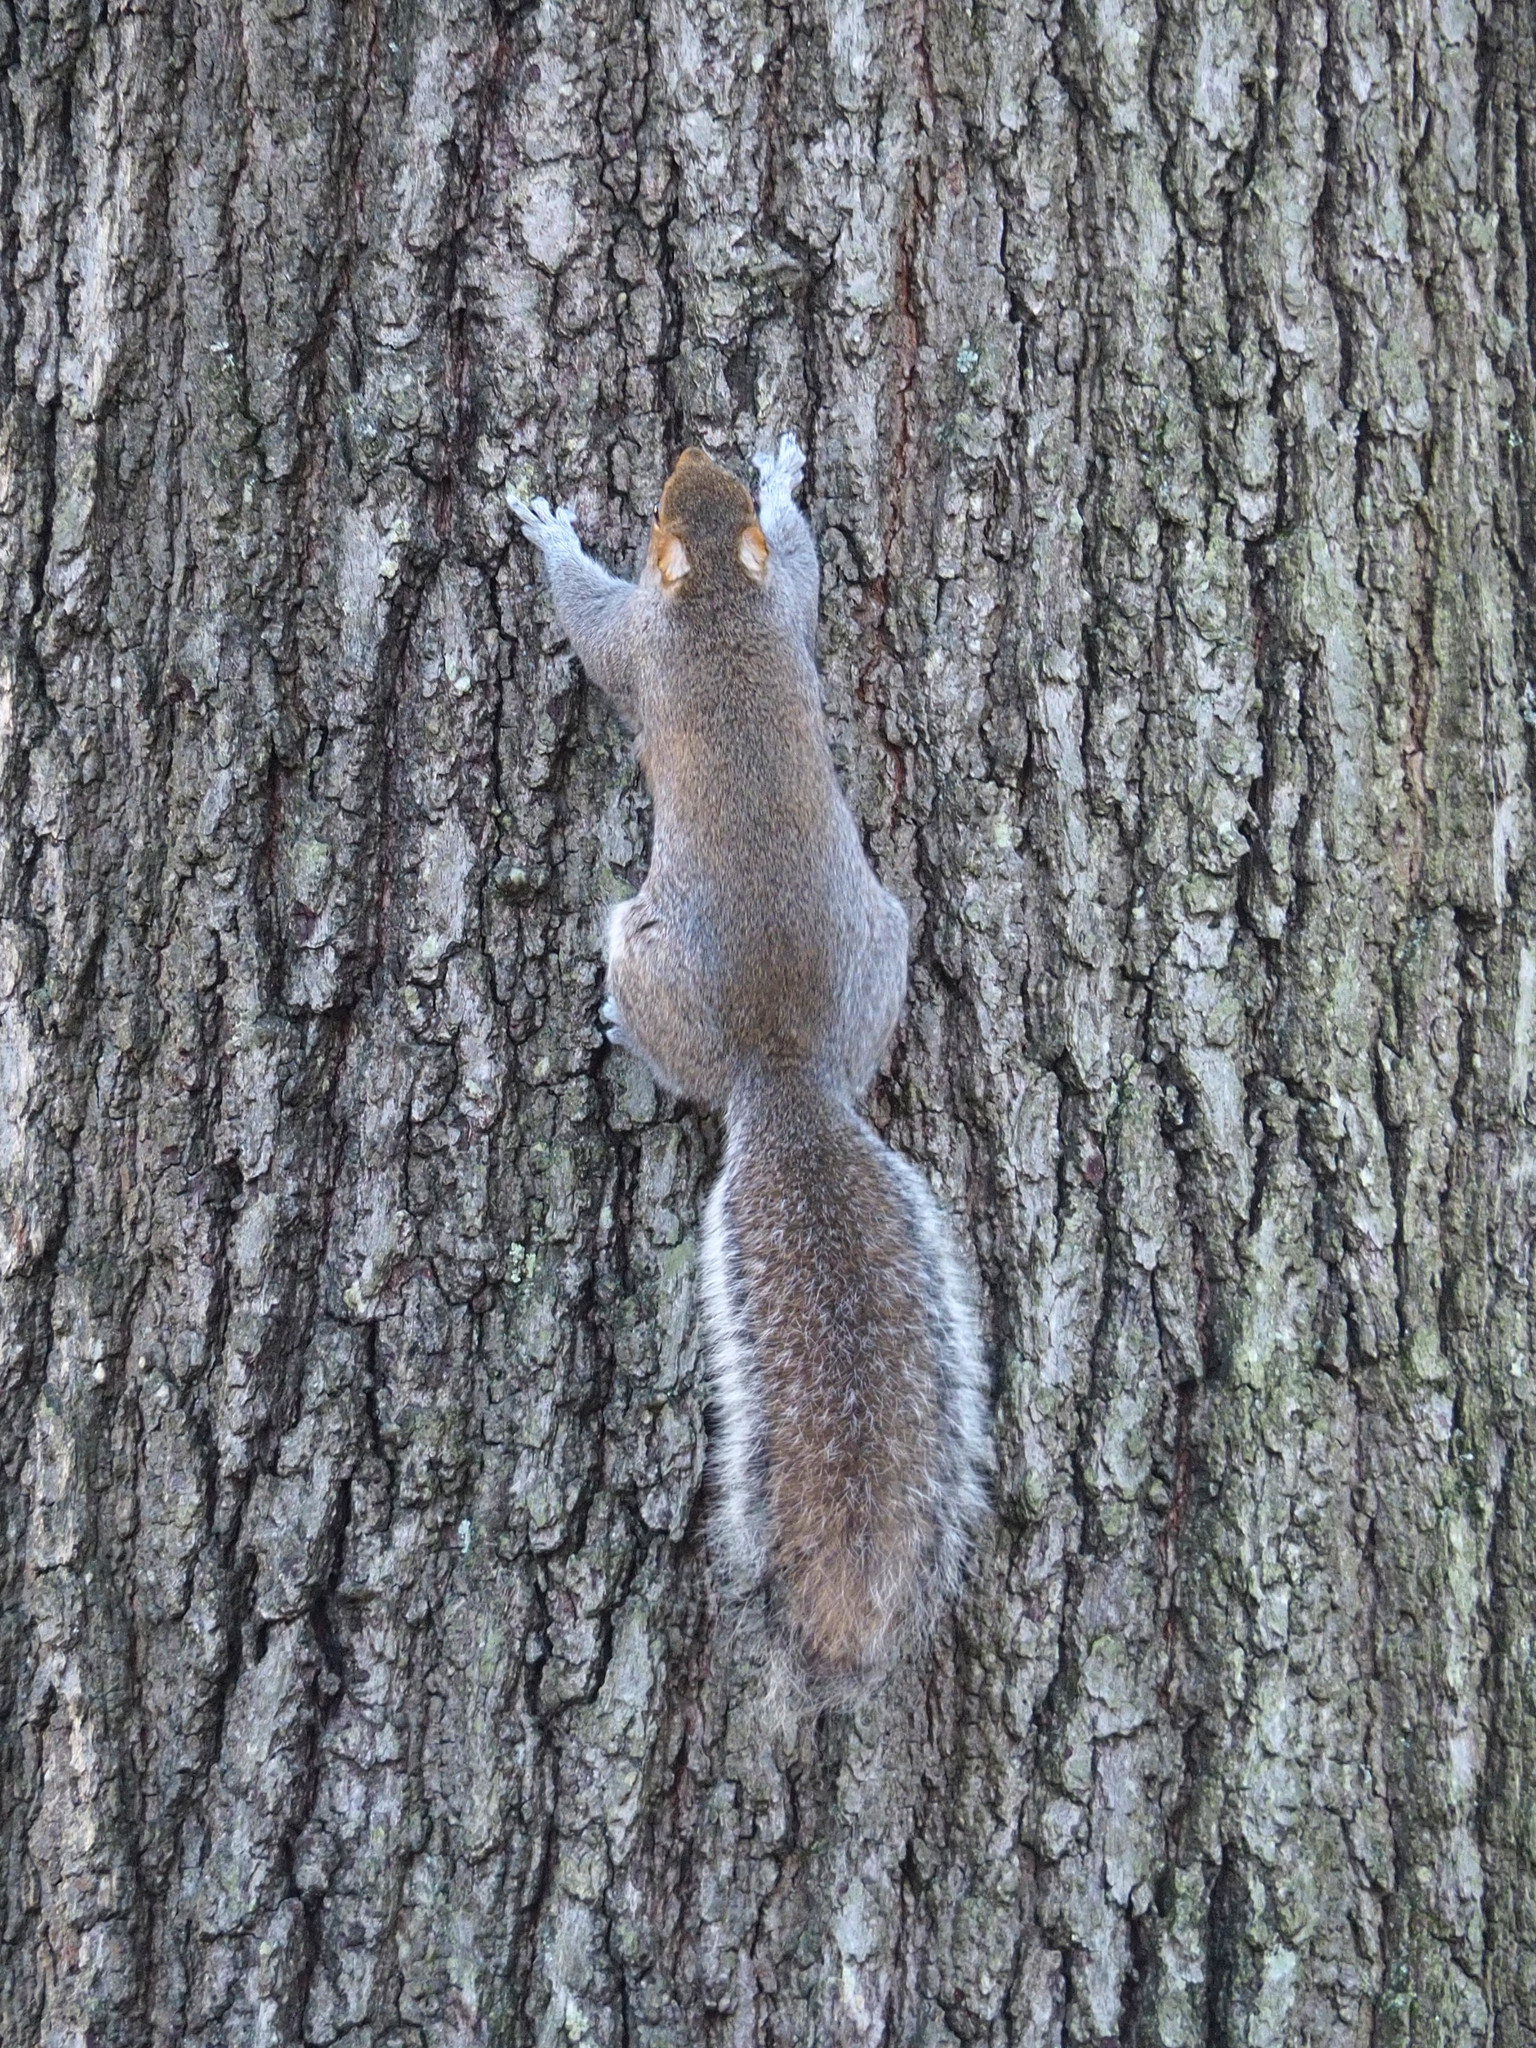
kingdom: Animalia
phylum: Chordata
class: Mammalia
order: Rodentia
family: Sciuridae
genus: Sciurus
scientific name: Sciurus carolinensis
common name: Eastern gray squirrel
